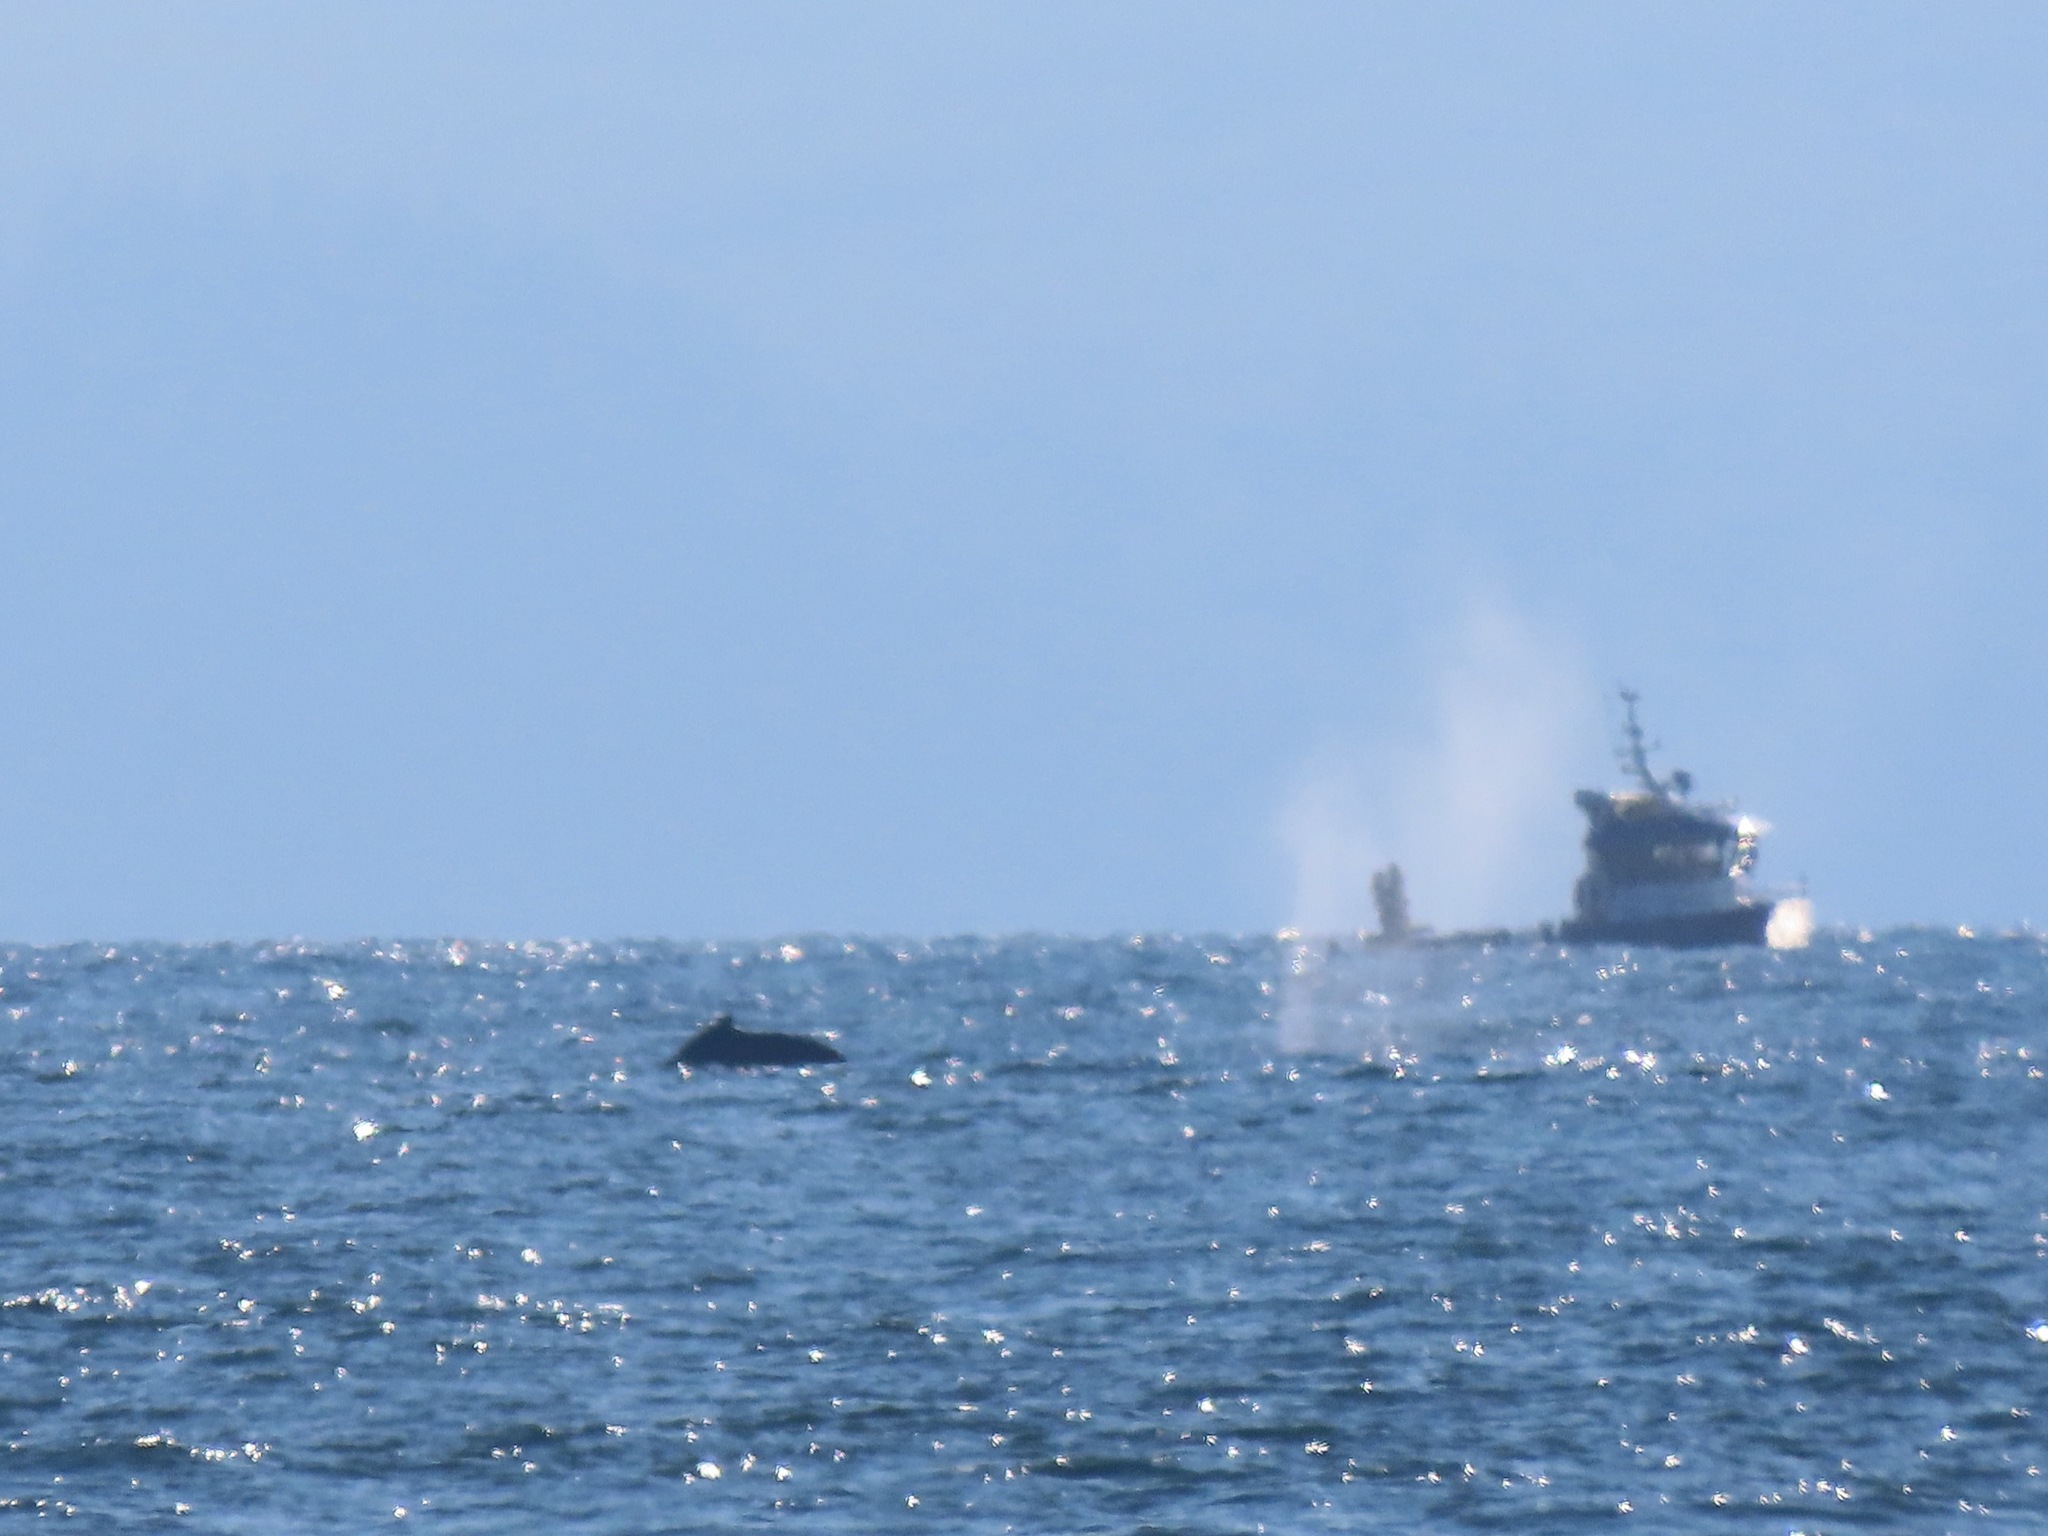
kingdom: Animalia
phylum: Chordata
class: Mammalia
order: Cetacea
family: Balaenopteridae
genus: Megaptera
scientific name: Megaptera novaeangliae
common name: Humpback whale
